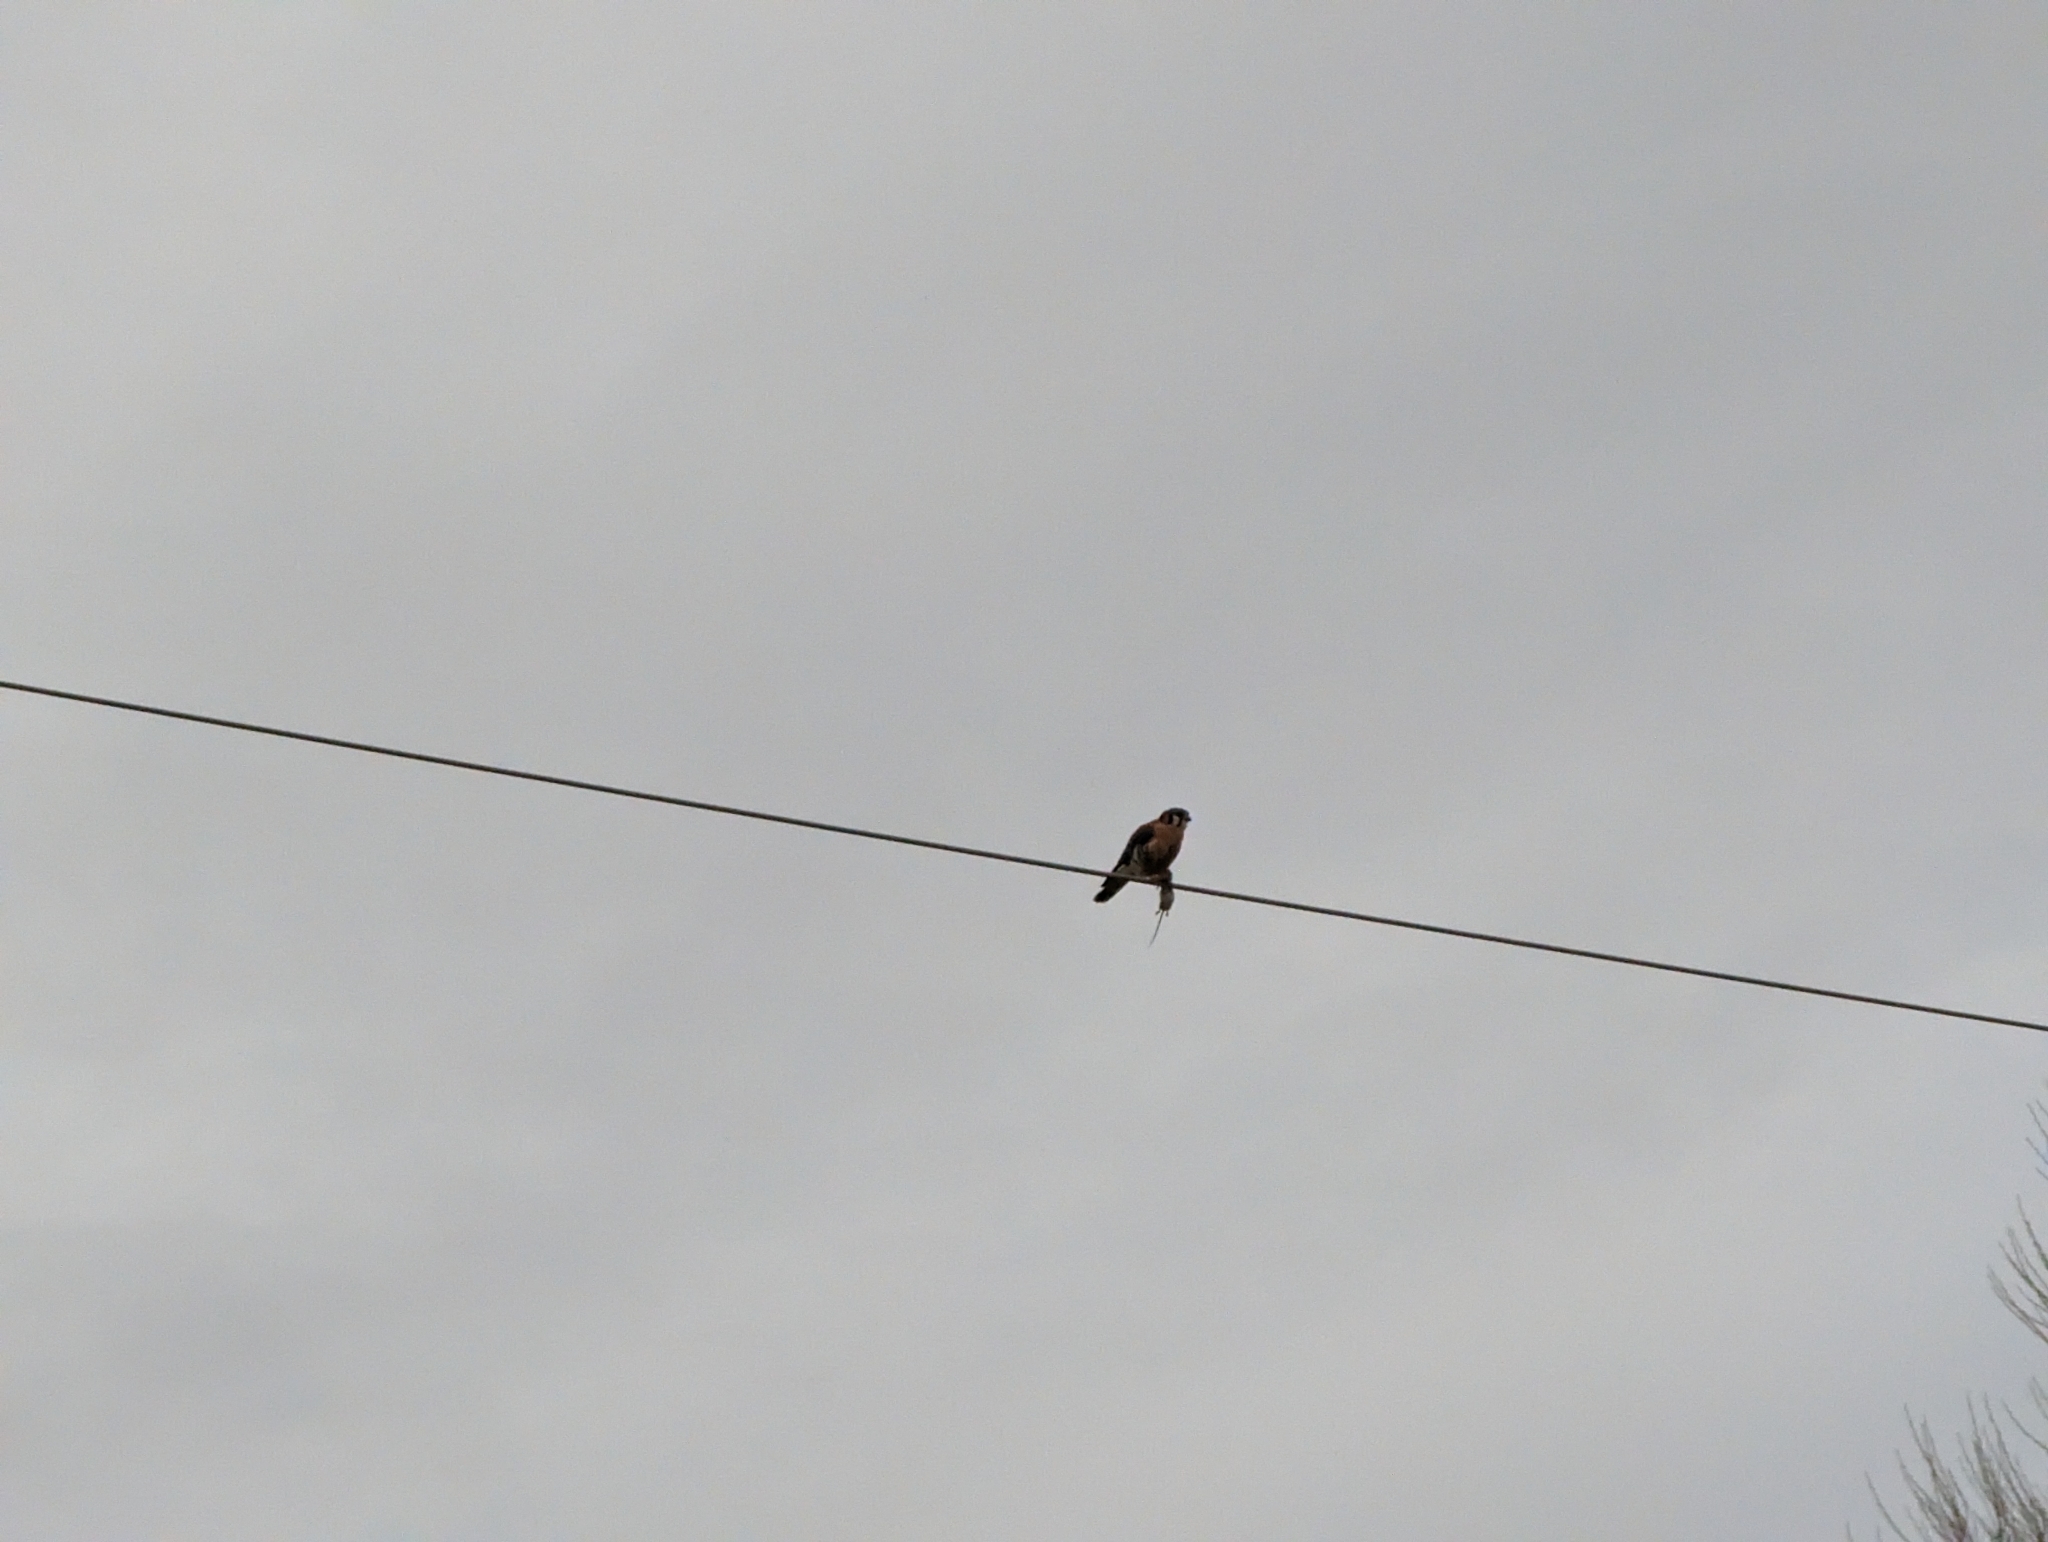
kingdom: Animalia
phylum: Chordata
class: Aves
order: Falconiformes
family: Falconidae
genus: Falco
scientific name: Falco sparverius
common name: American kestrel
